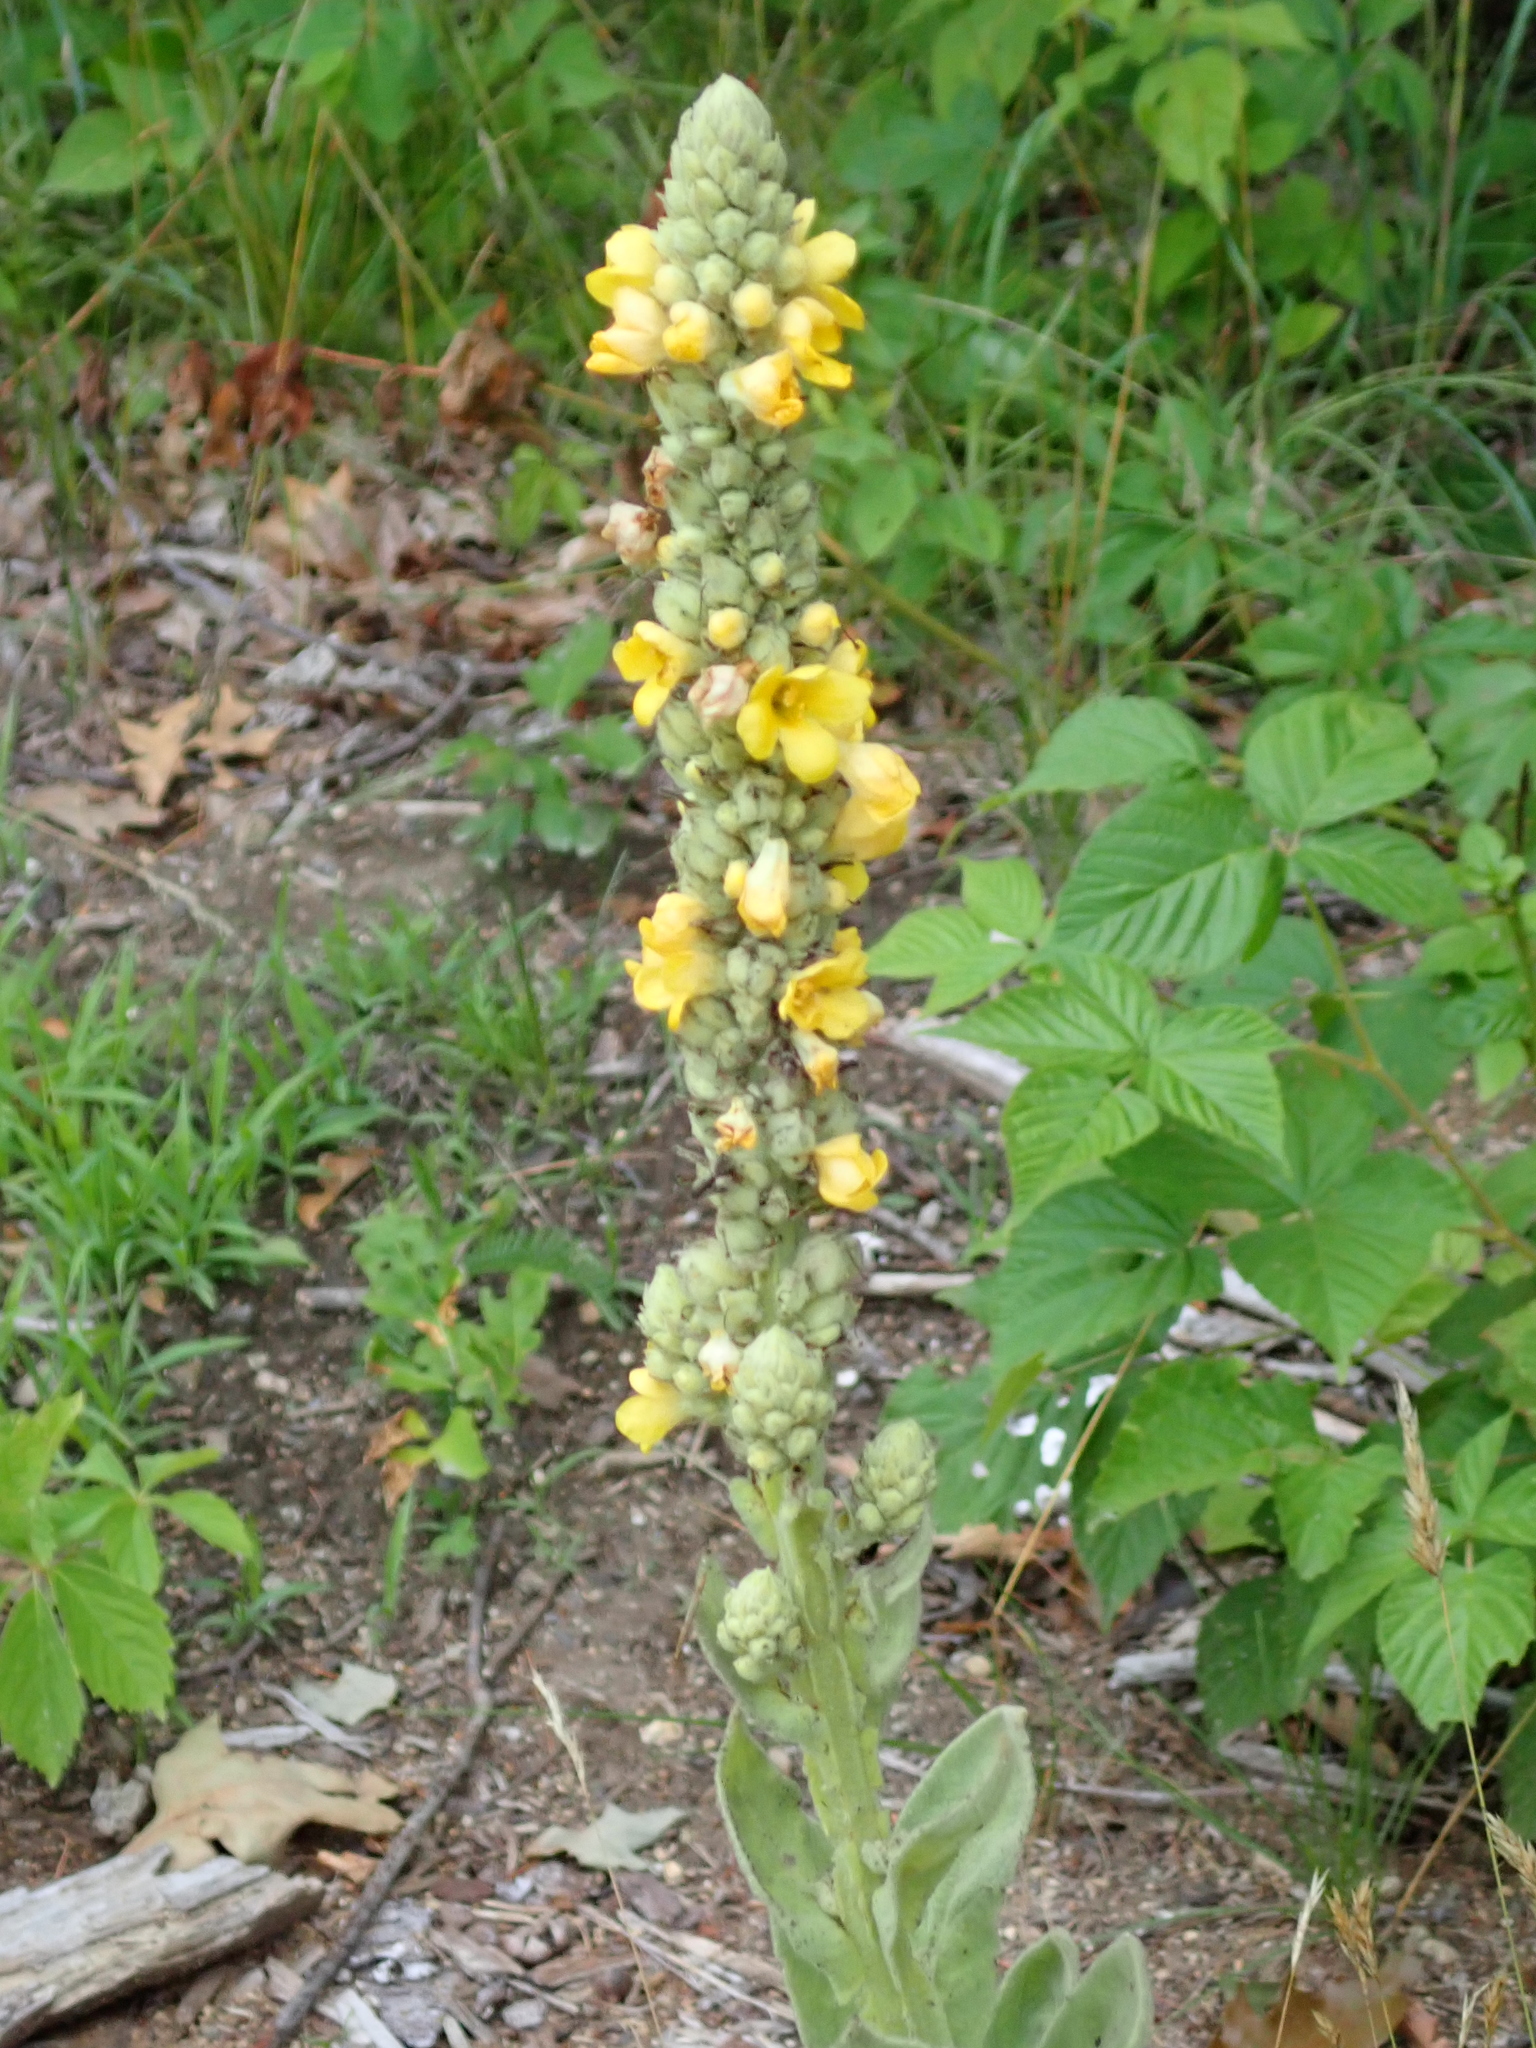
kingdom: Plantae
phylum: Tracheophyta
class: Magnoliopsida
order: Lamiales
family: Scrophulariaceae
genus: Verbascum
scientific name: Verbascum thapsus
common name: Common mullein
